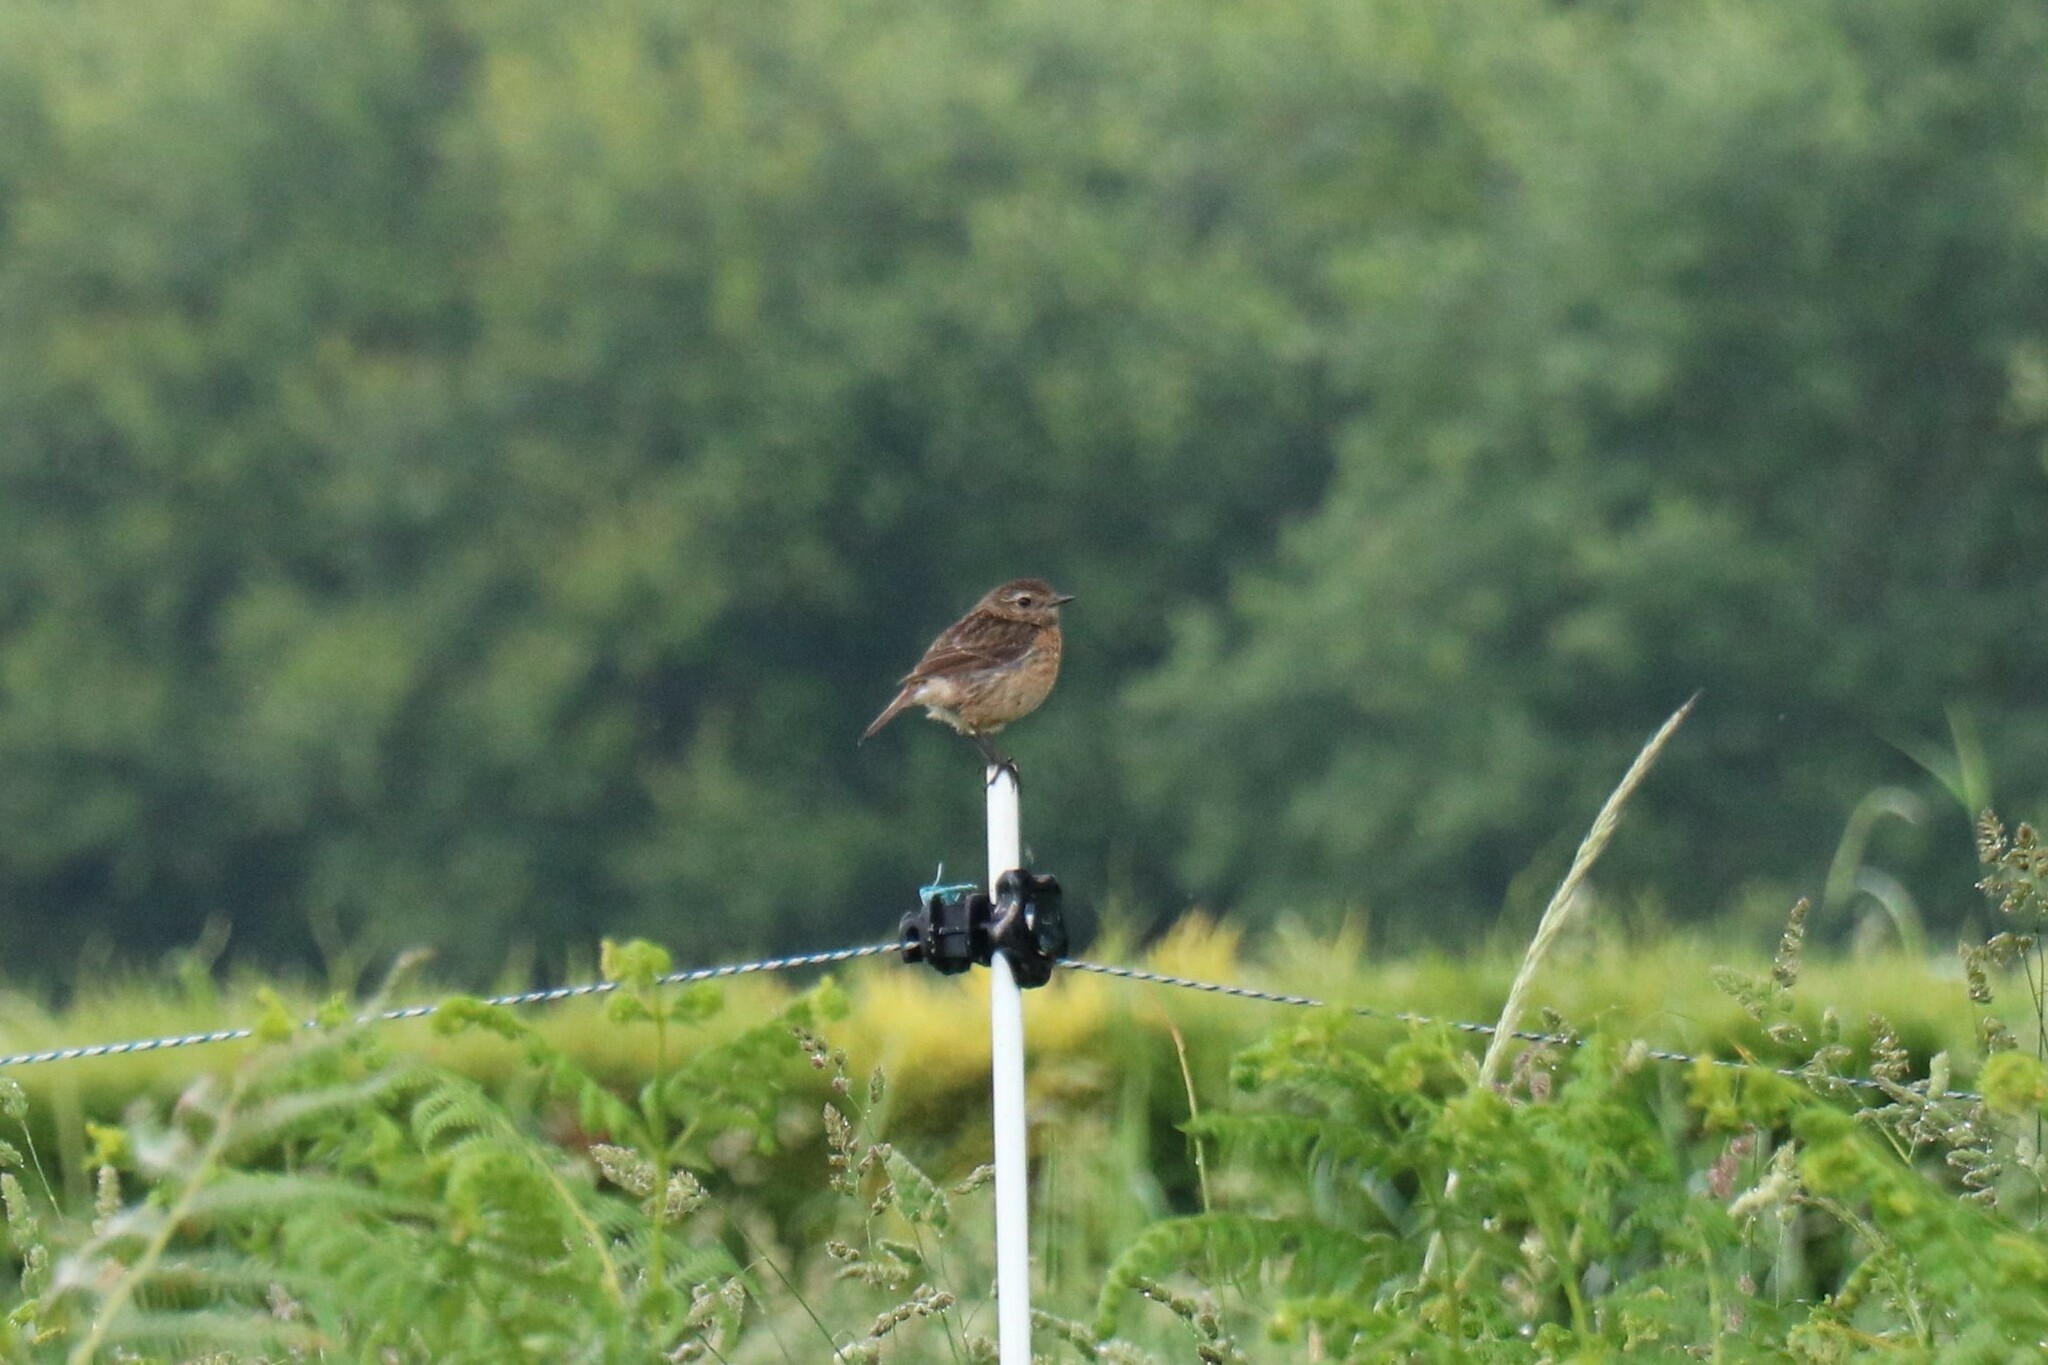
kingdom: Animalia
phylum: Chordata
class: Aves
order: Passeriformes
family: Muscicapidae
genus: Saxicola
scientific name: Saxicola rubicola
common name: European stonechat
